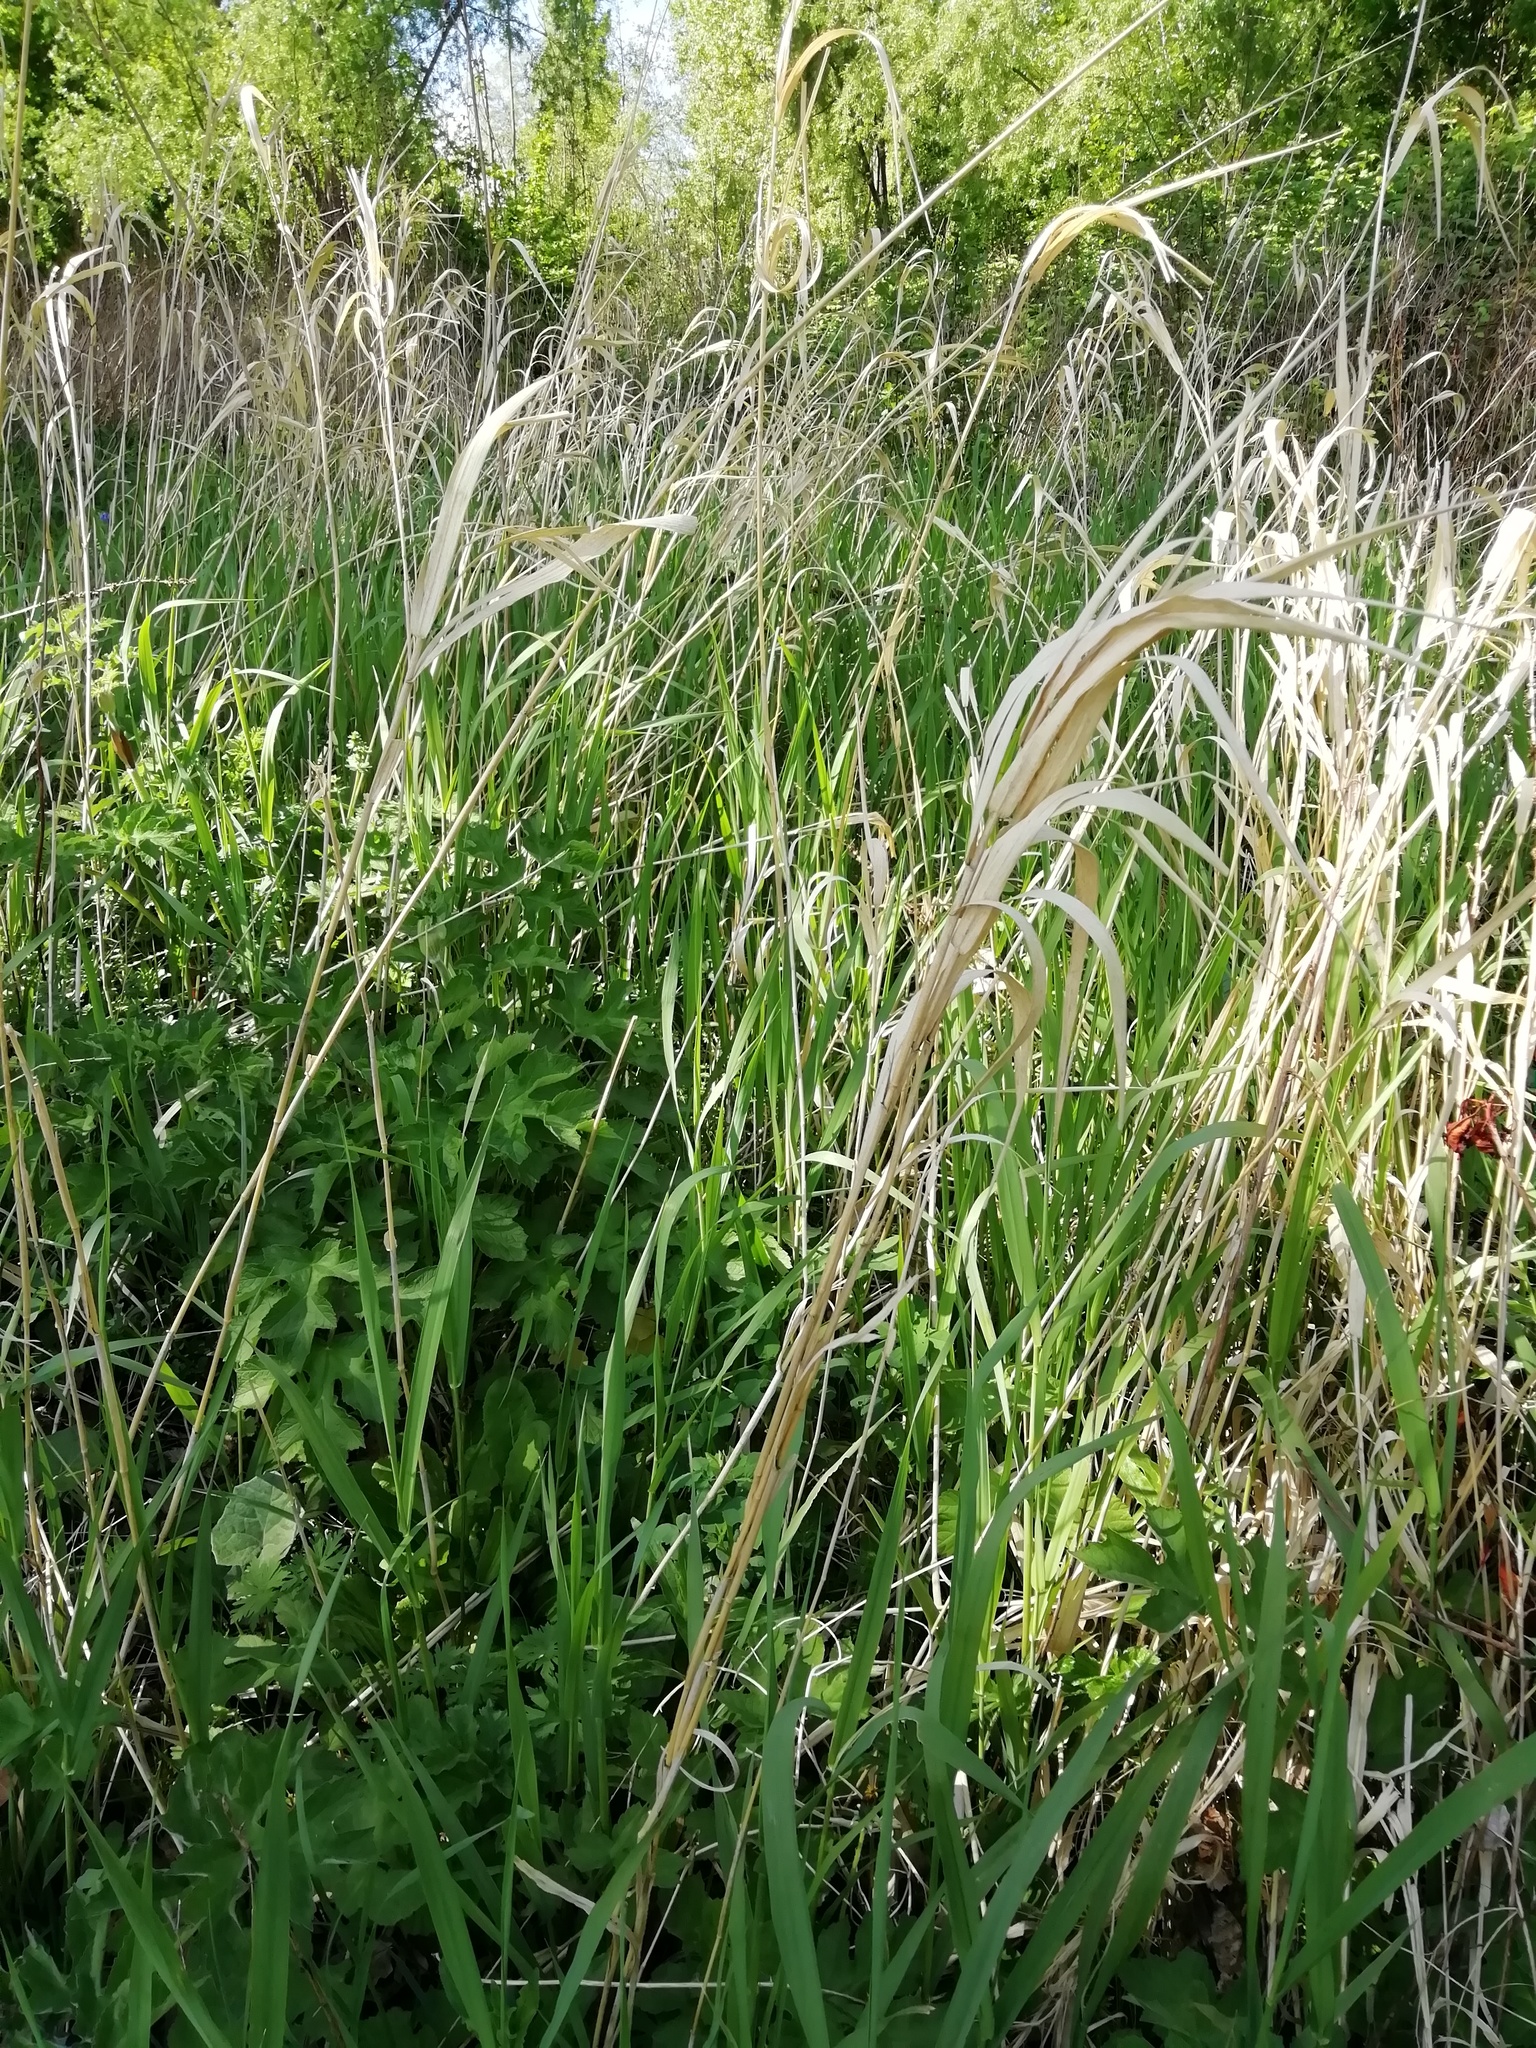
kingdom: Plantae
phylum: Tracheophyta
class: Liliopsida
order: Poales
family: Poaceae
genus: Phalaris
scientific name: Phalaris arundinacea
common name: Reed canary-grass
